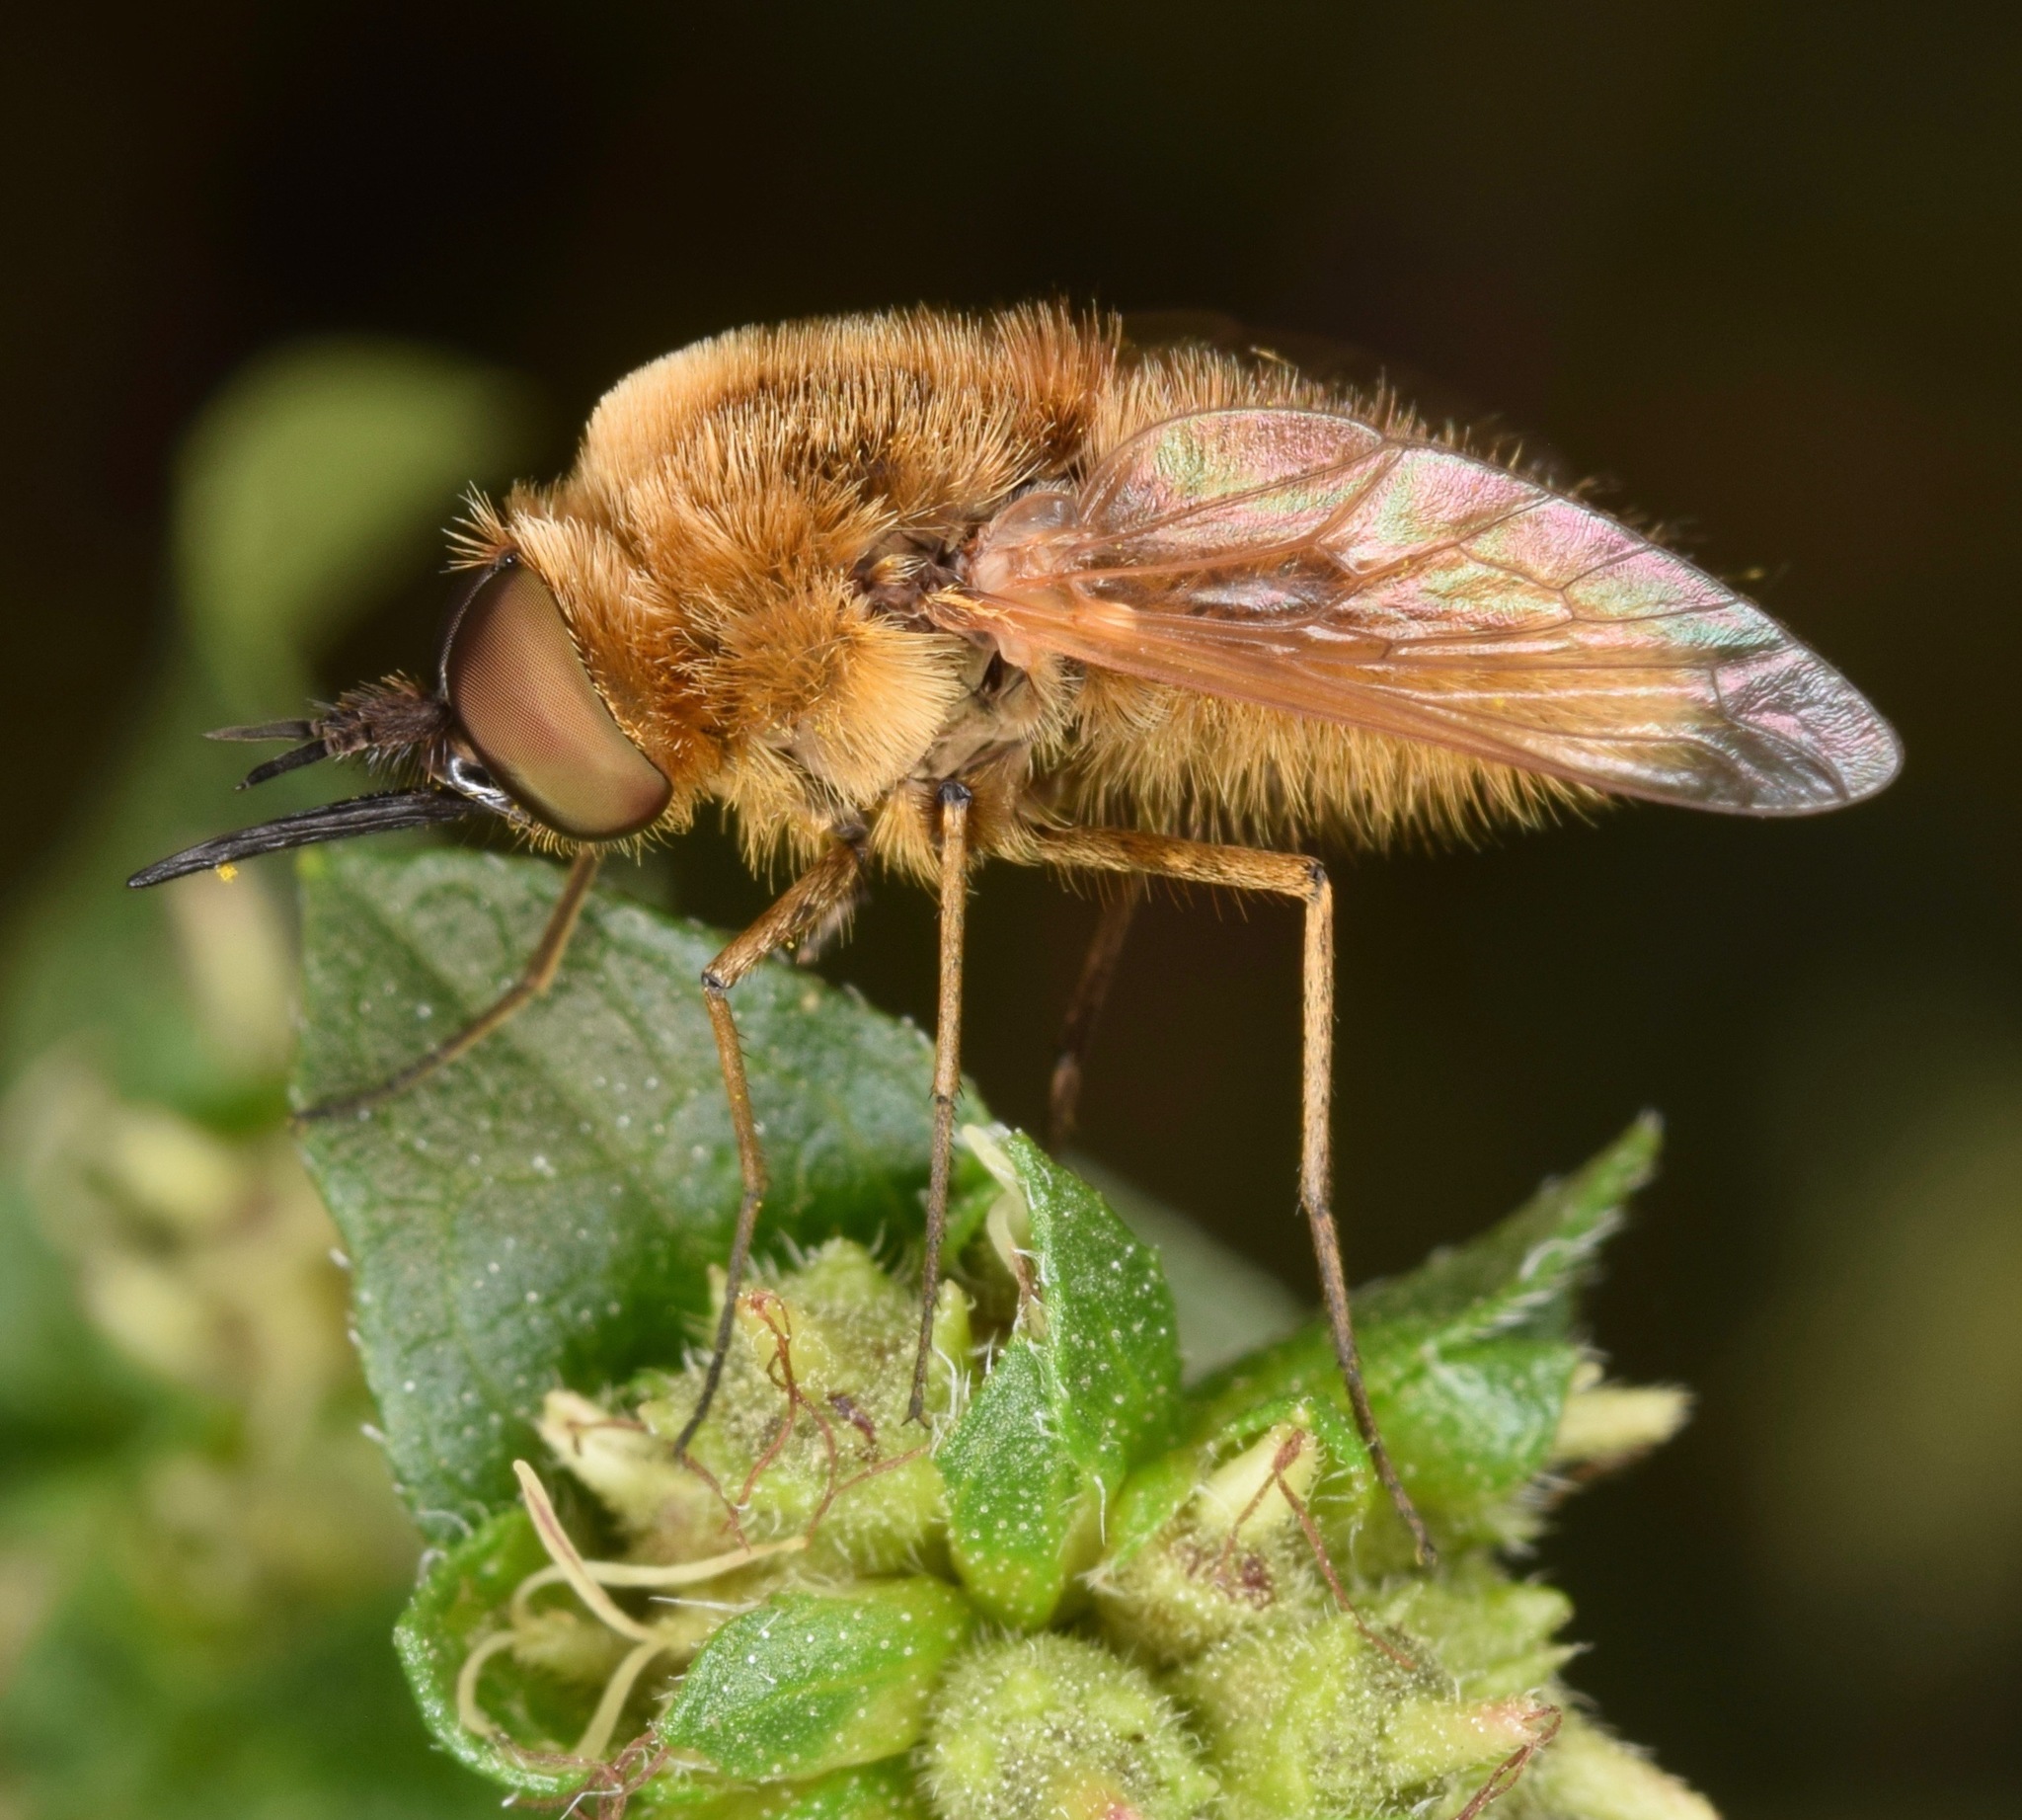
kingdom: Animalia
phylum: Arthropoda
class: Insecta
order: Diptera
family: Bombyliidae
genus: Sparnopolius
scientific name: Sparnopolius confusus
